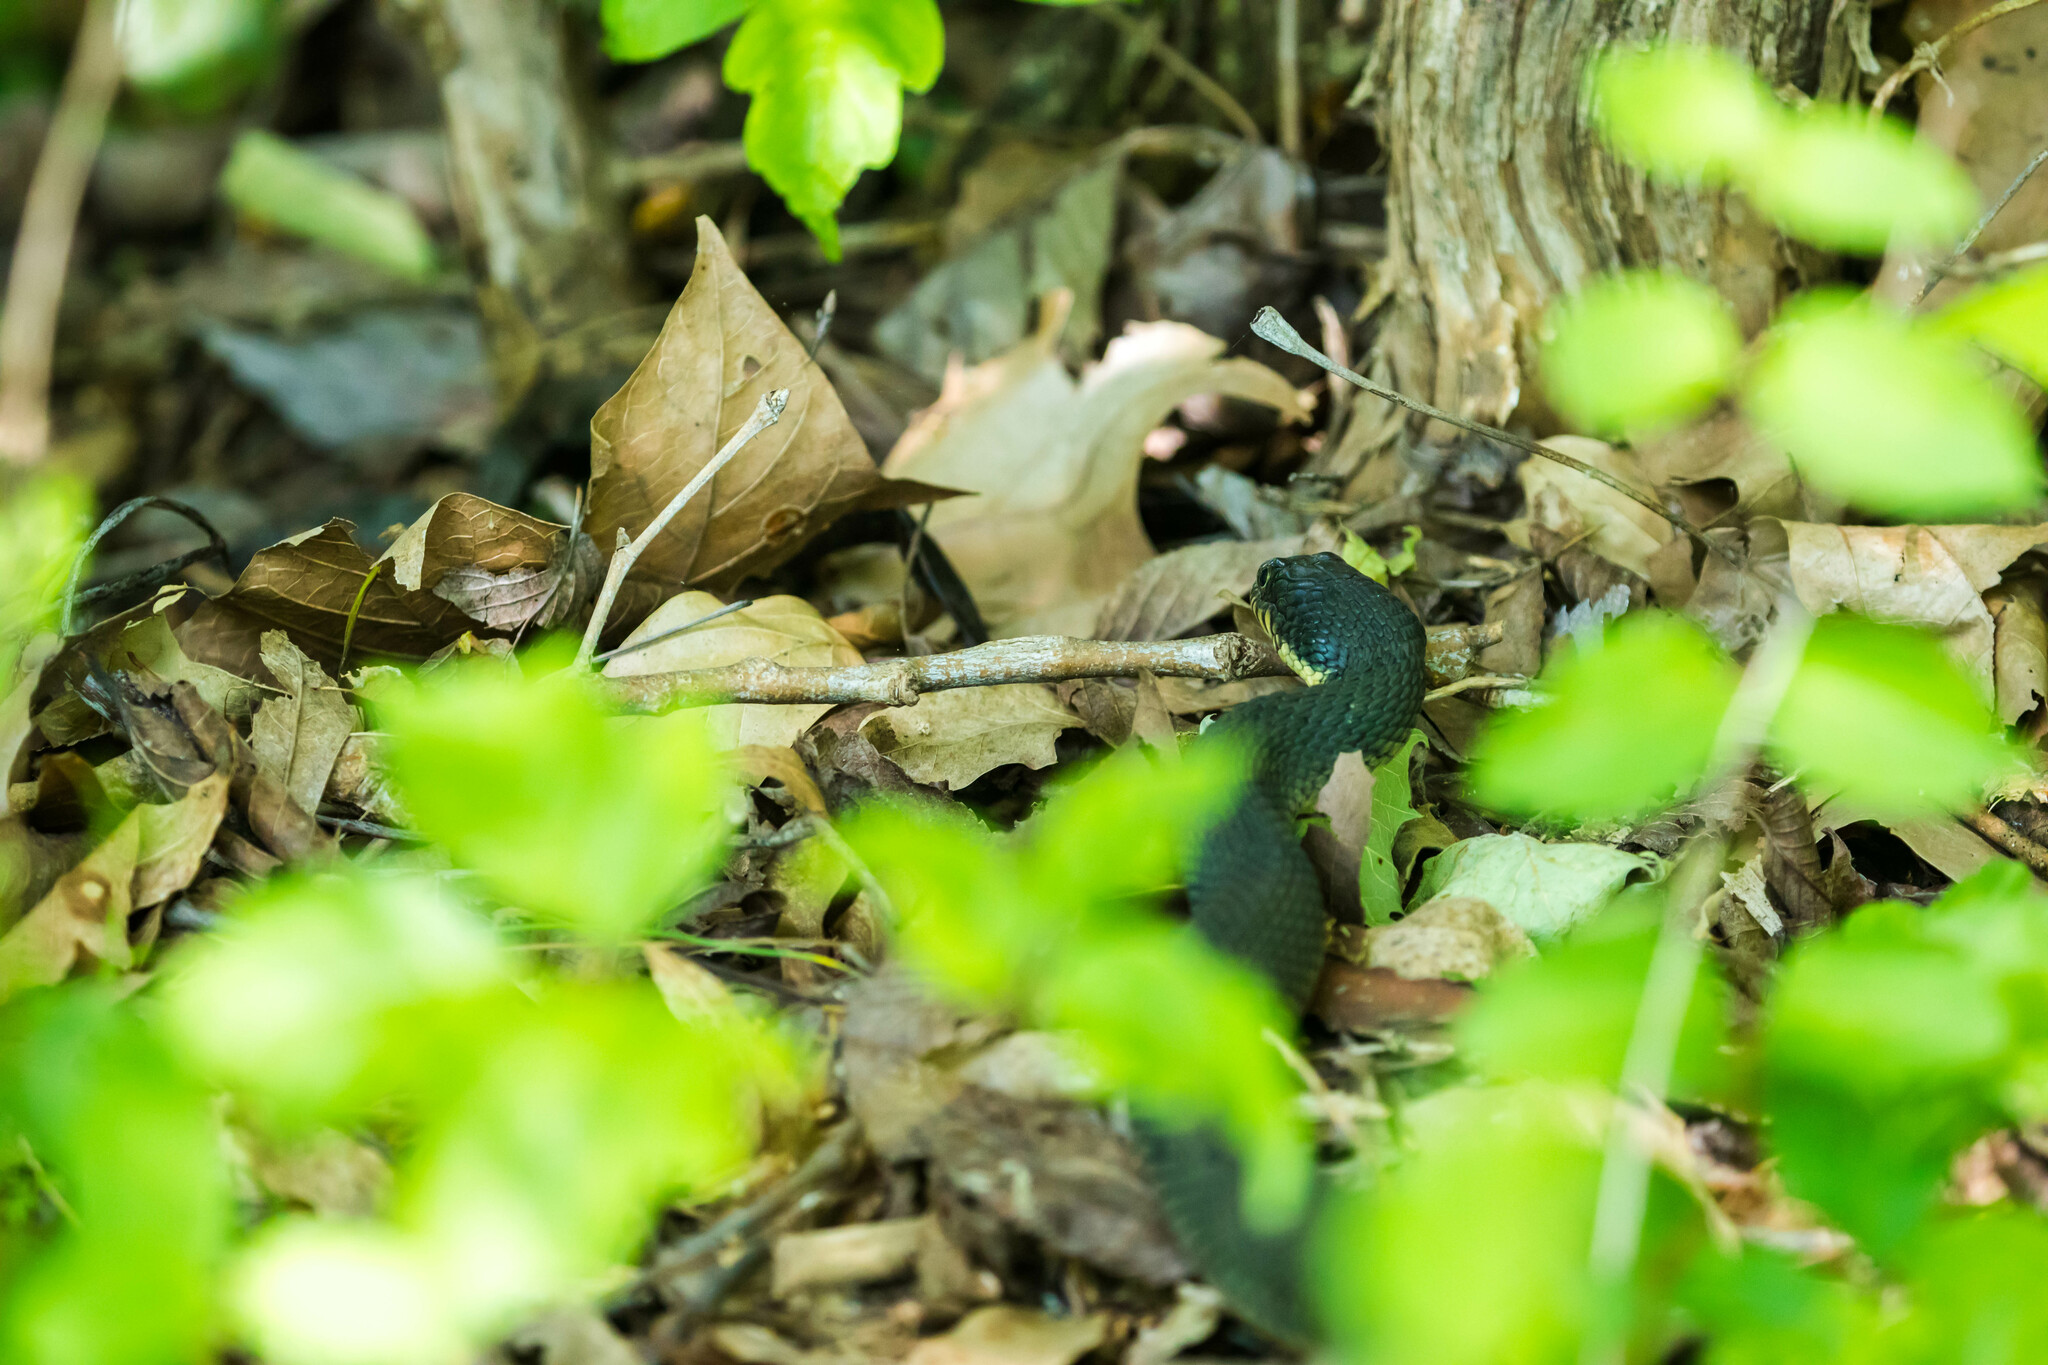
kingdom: Animalia
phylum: Chordata
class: Squamata
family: Colubridae
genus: Nerodia
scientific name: Nerodia erythrogaster
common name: Plainbelly water snake
